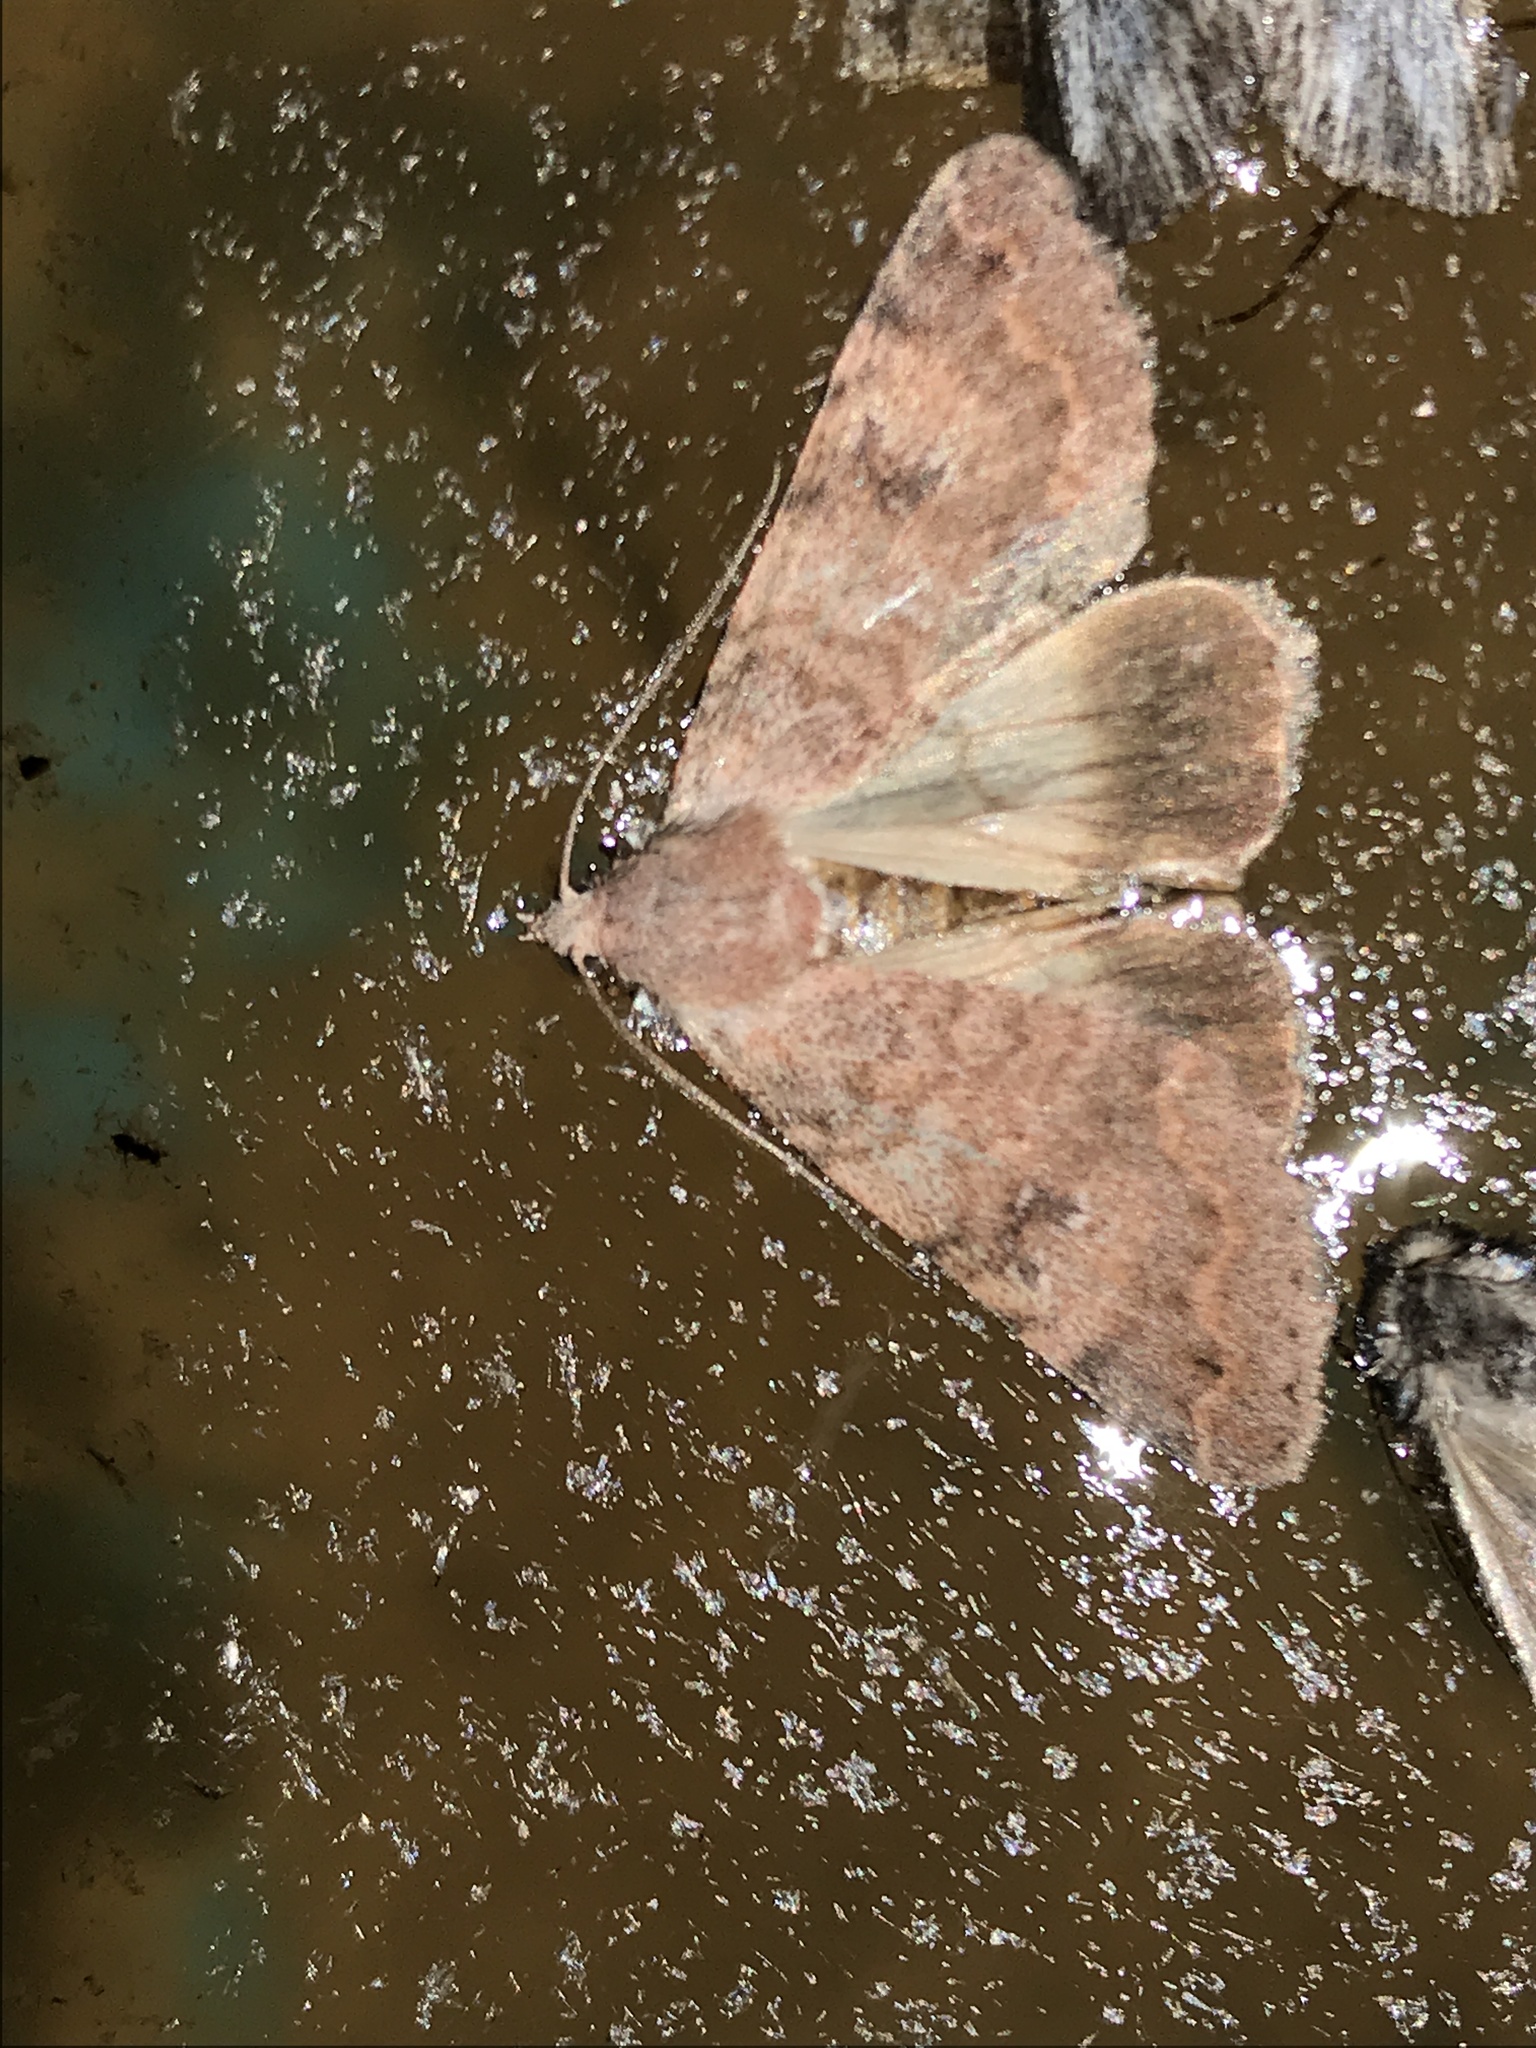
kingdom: Animalia
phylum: Arthropoda
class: Insecta
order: Lepidoptera
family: Erebidae
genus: Drasteria
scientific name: Drasteria inepta
